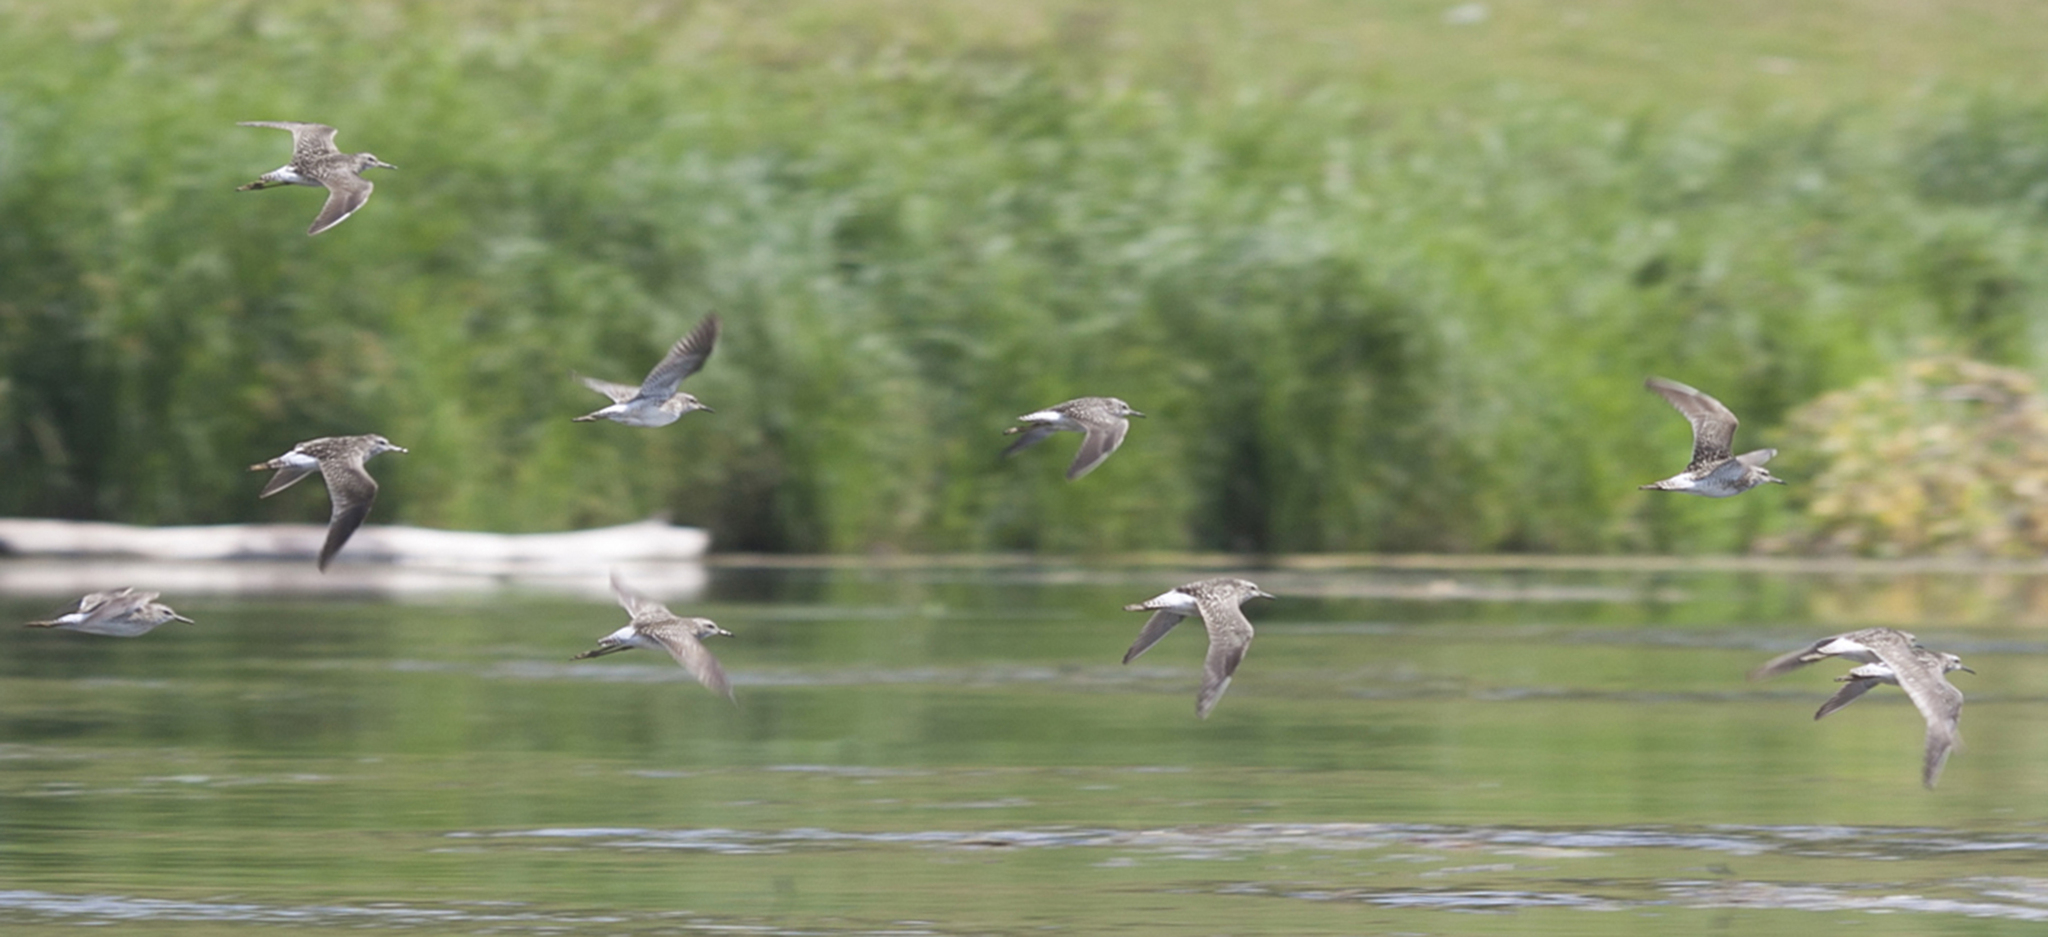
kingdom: Animalia
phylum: Chordata
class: Aves
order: Charadriiformes
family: Scolopacidae
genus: Tringa
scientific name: Tringa glareola
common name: Wood sandpiper
